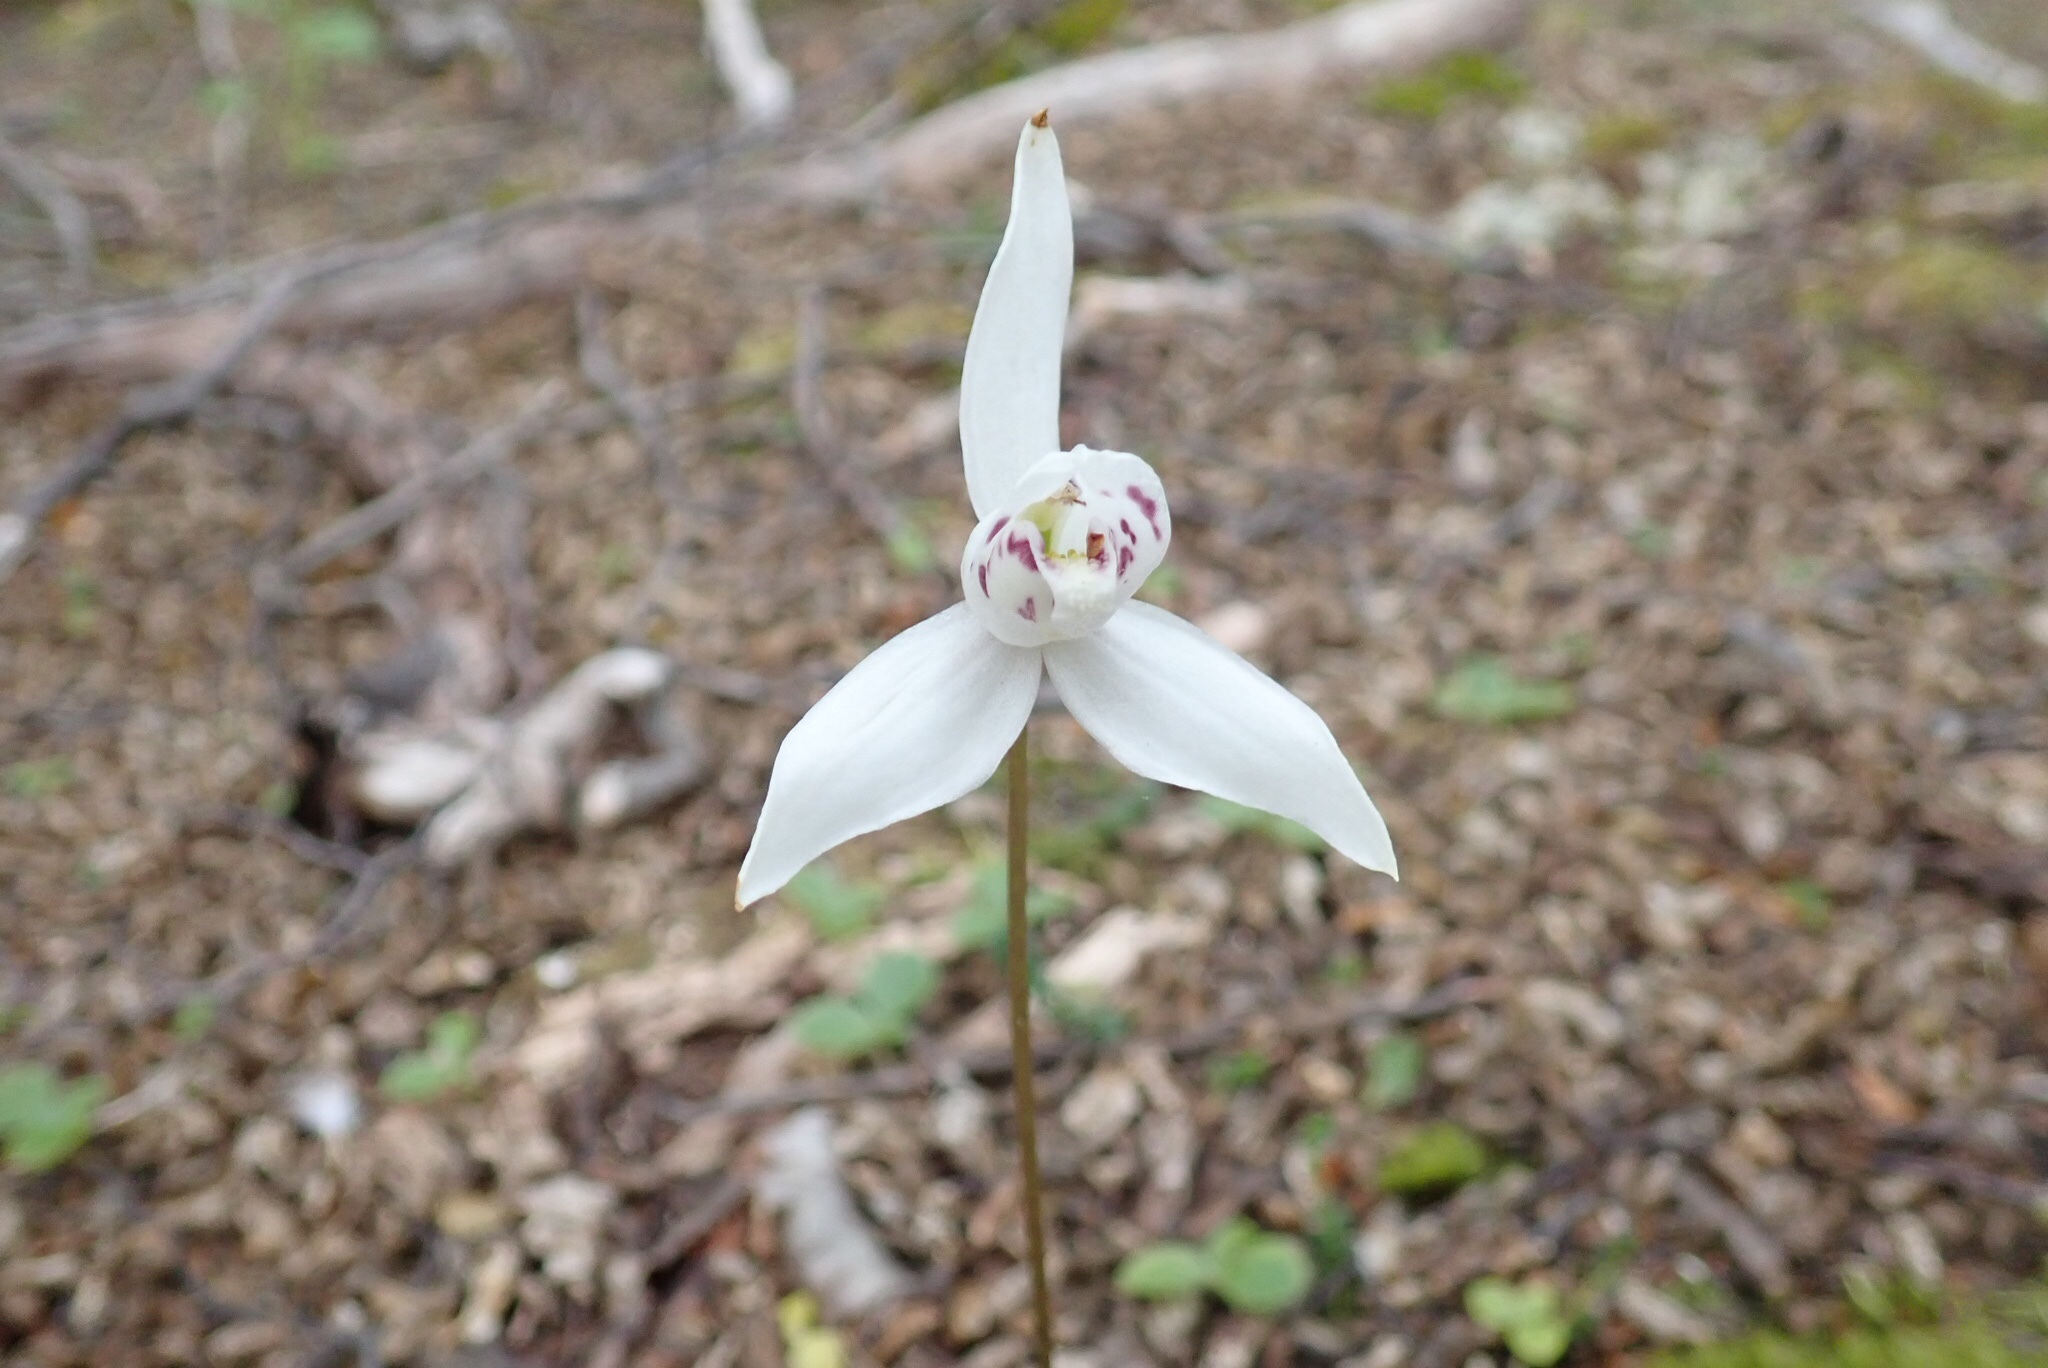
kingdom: Plantae
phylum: Tracheophyta
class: Liliopsida
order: Asparagales
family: Orchidaceae
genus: Codonorchis
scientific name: Codonorchis lessonii
